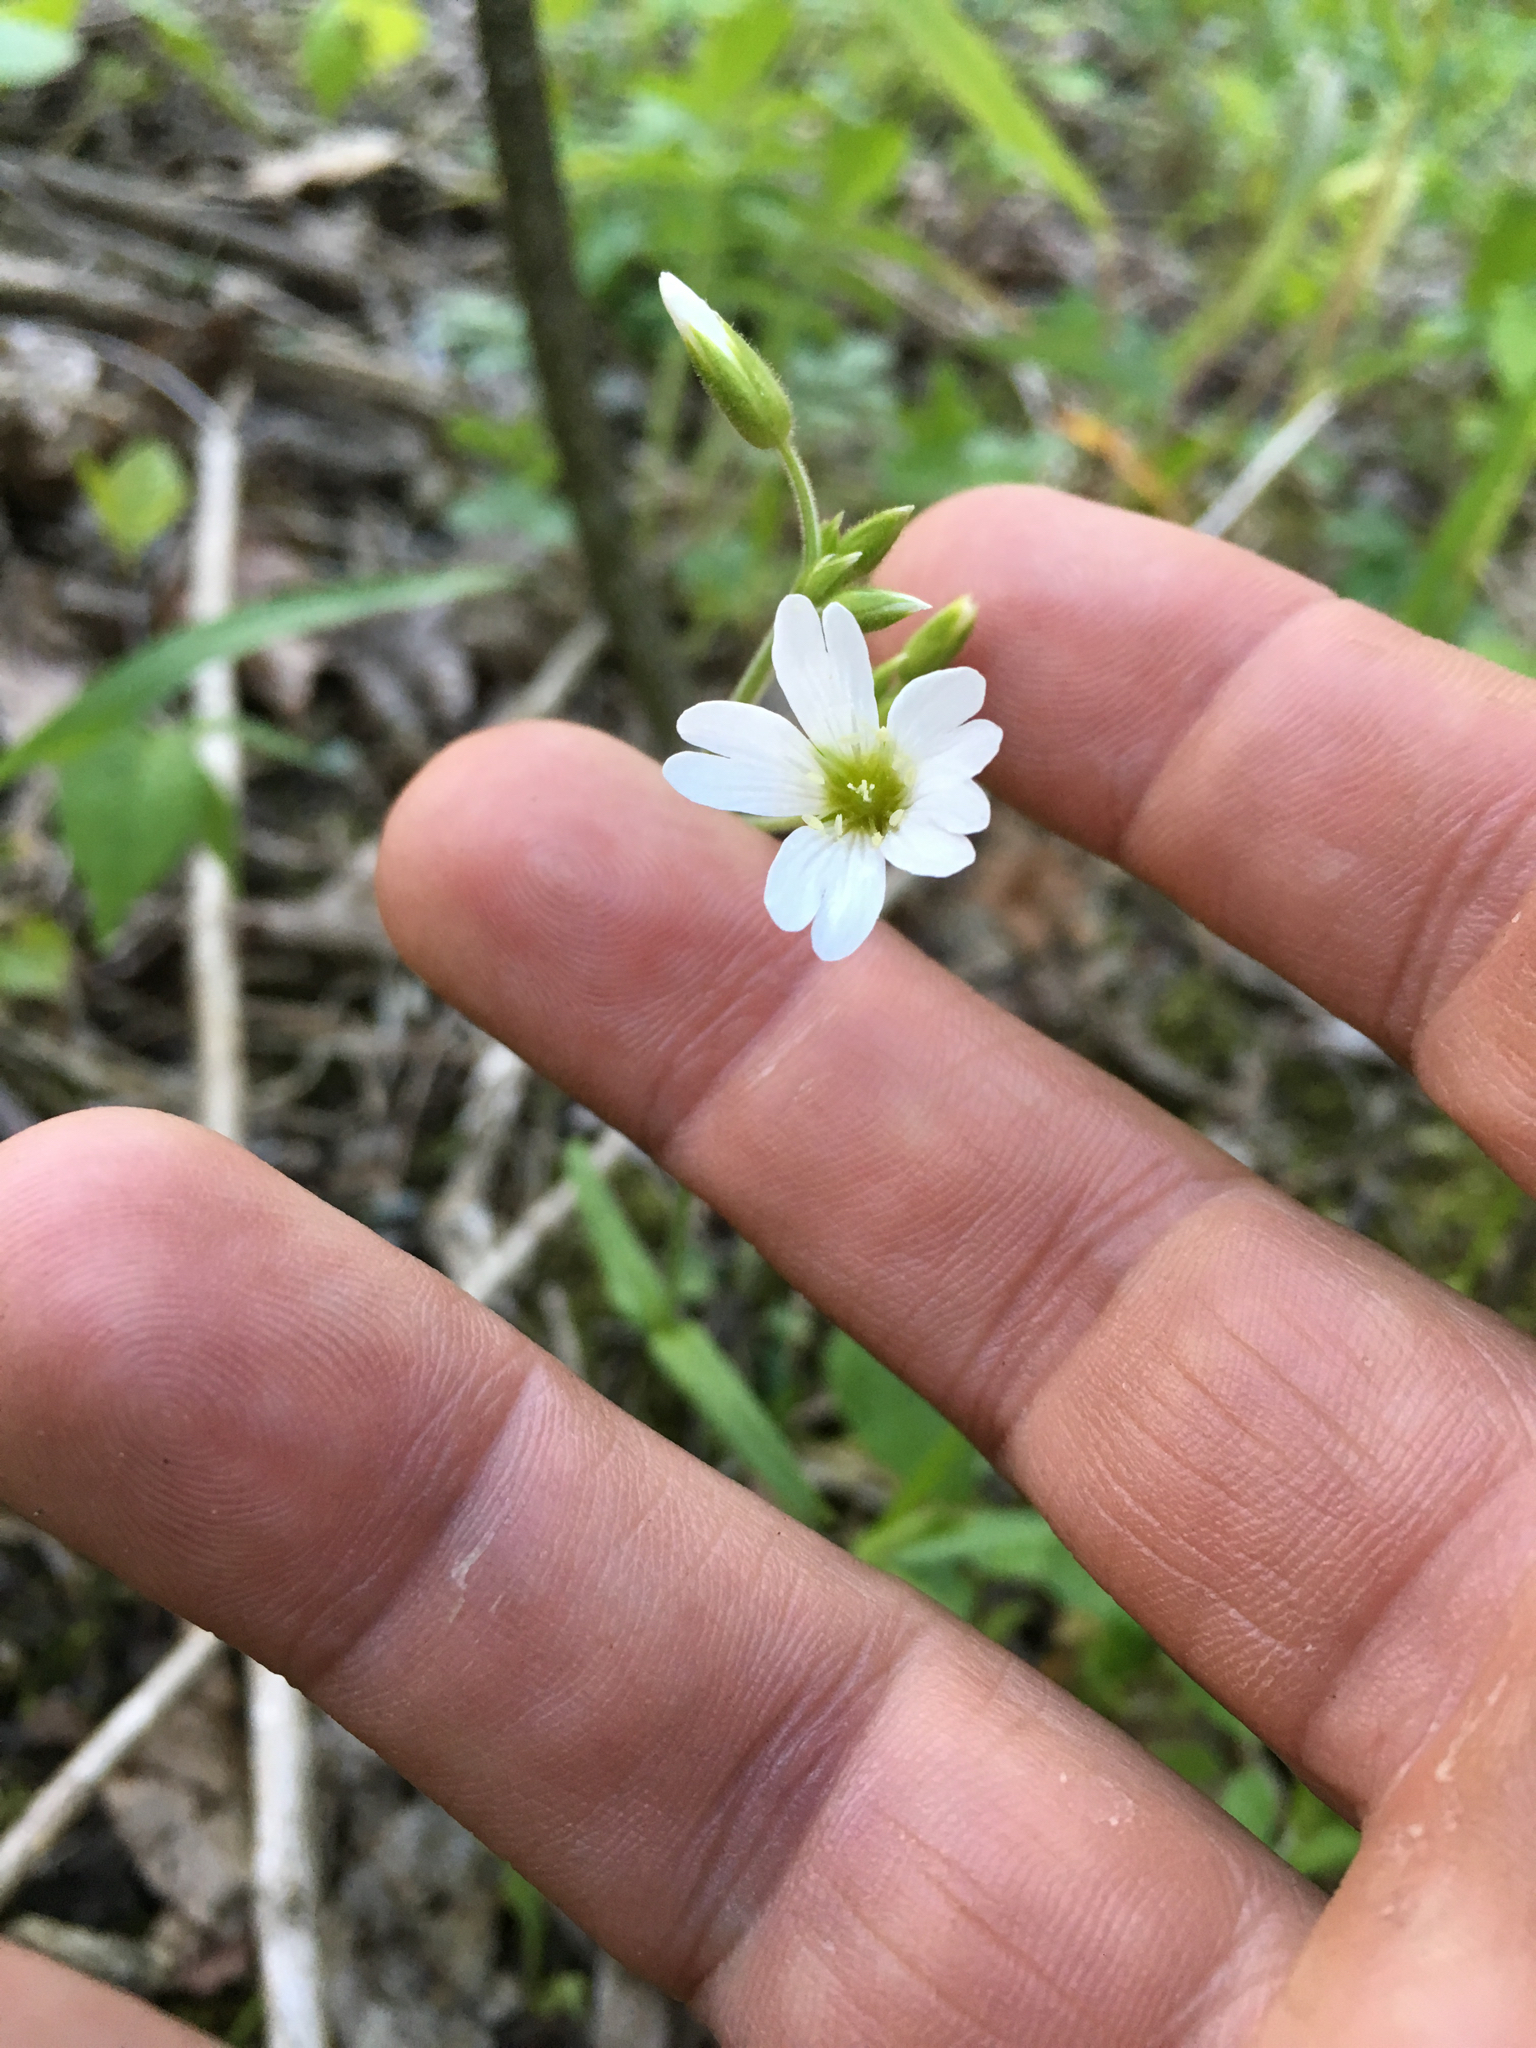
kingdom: Plantae
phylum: Tracheophyta
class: Magnoliopsida
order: Caryophyllales
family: Caryophyllaceae
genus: Cerastium
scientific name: Cerastium velutinum
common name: Barren chickweed
